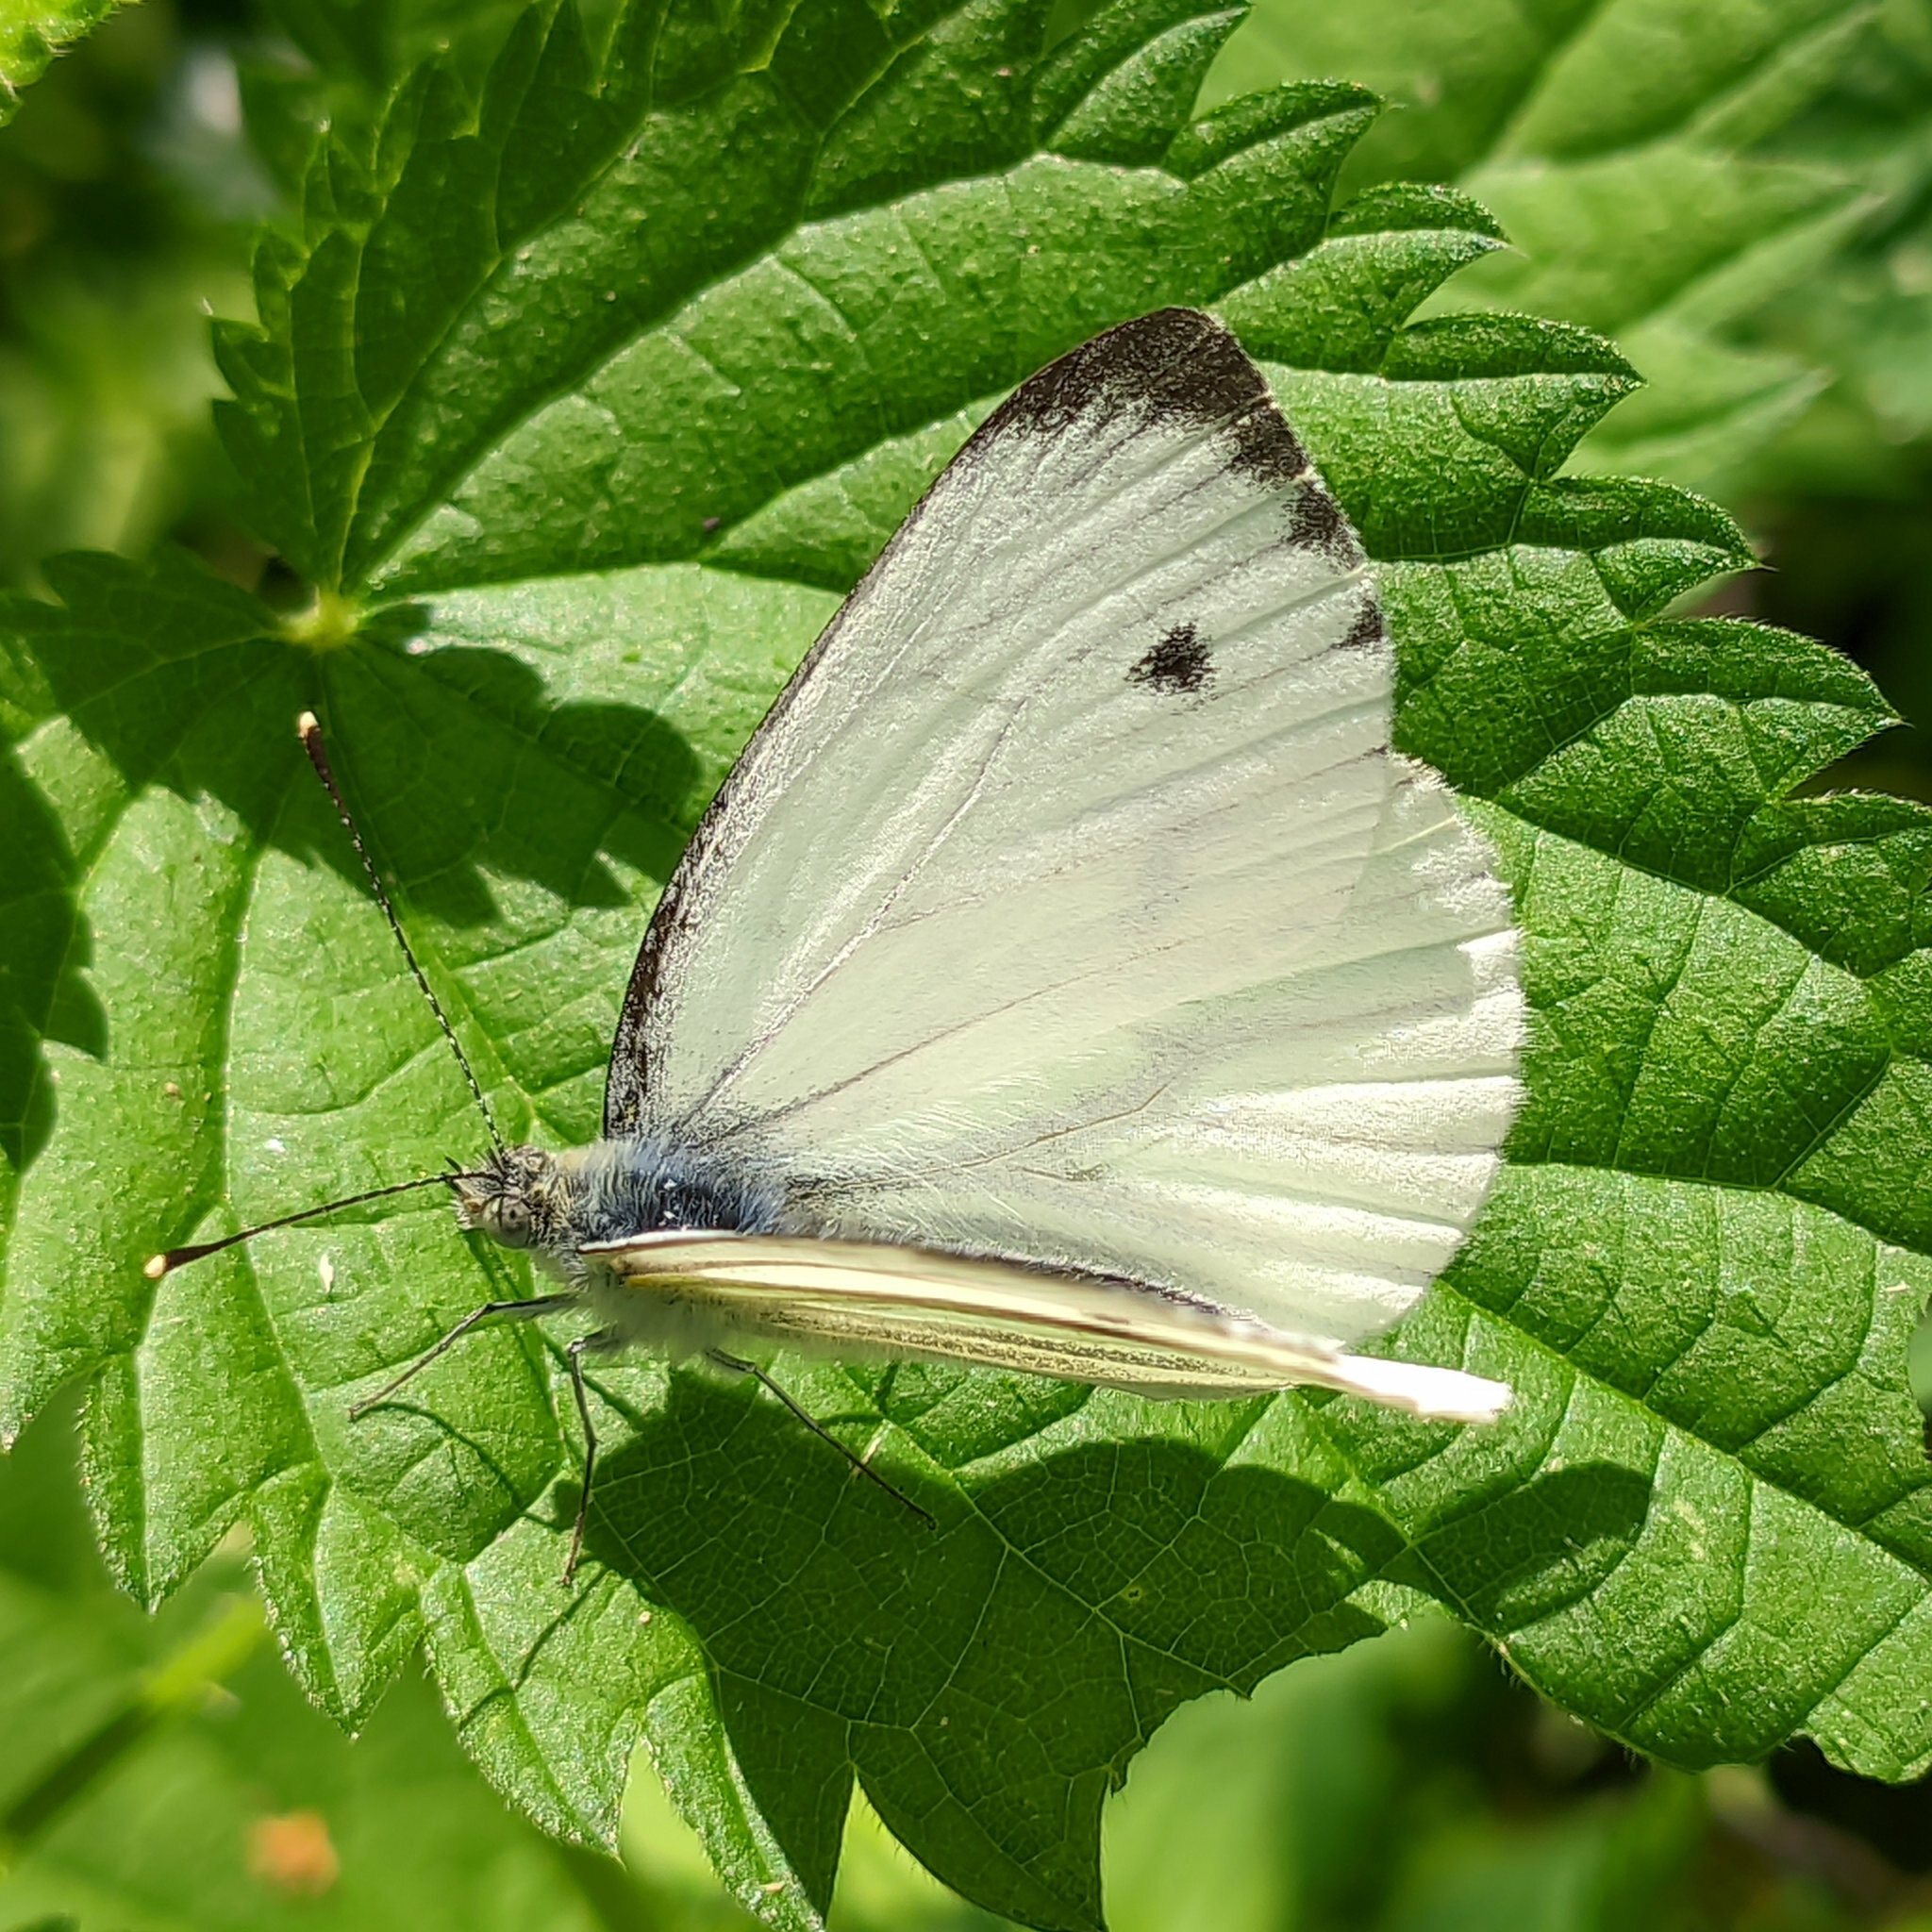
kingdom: Animalia
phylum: Arthropoda
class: Insecta
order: Lepidoptera
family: Pieridae
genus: Pieris
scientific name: Pieris napi
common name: Green-veined white
